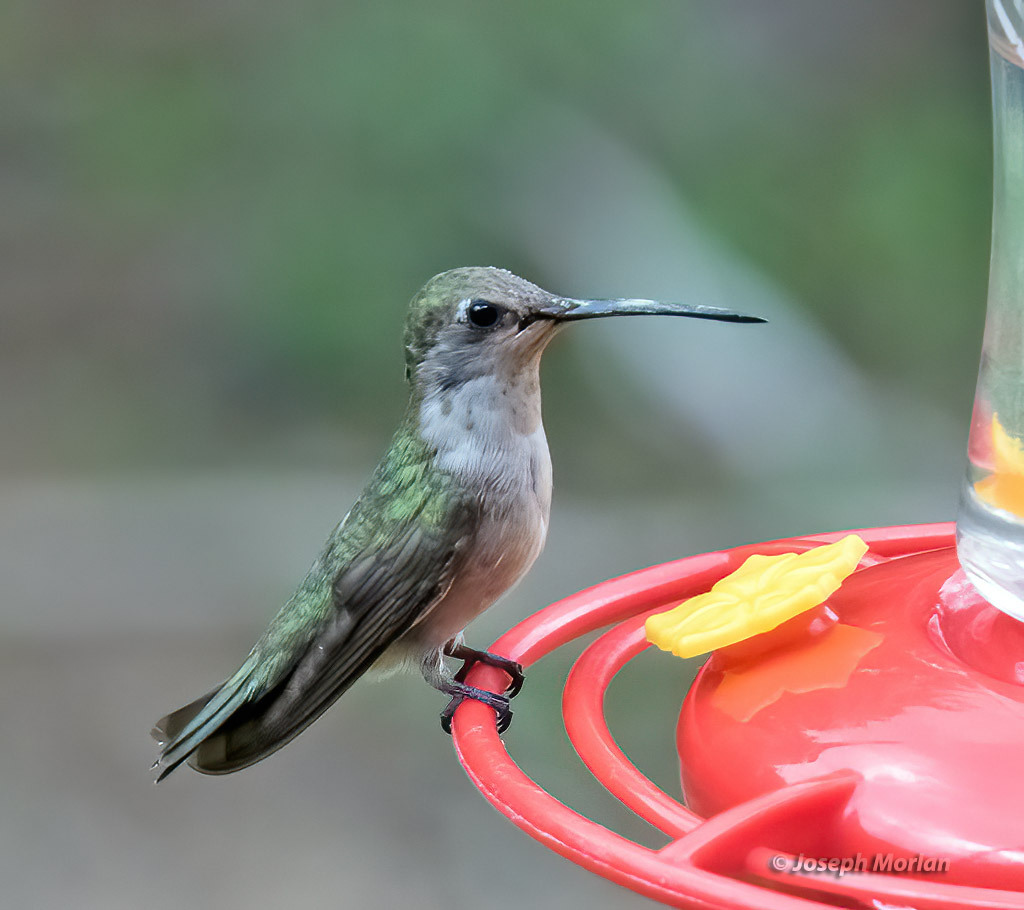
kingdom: Animalia
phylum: Chordata
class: Aves
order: Apodiformes
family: Trochilidae
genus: Archilochus
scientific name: Archilochus alexandri
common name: Black-chinned hummingbird
